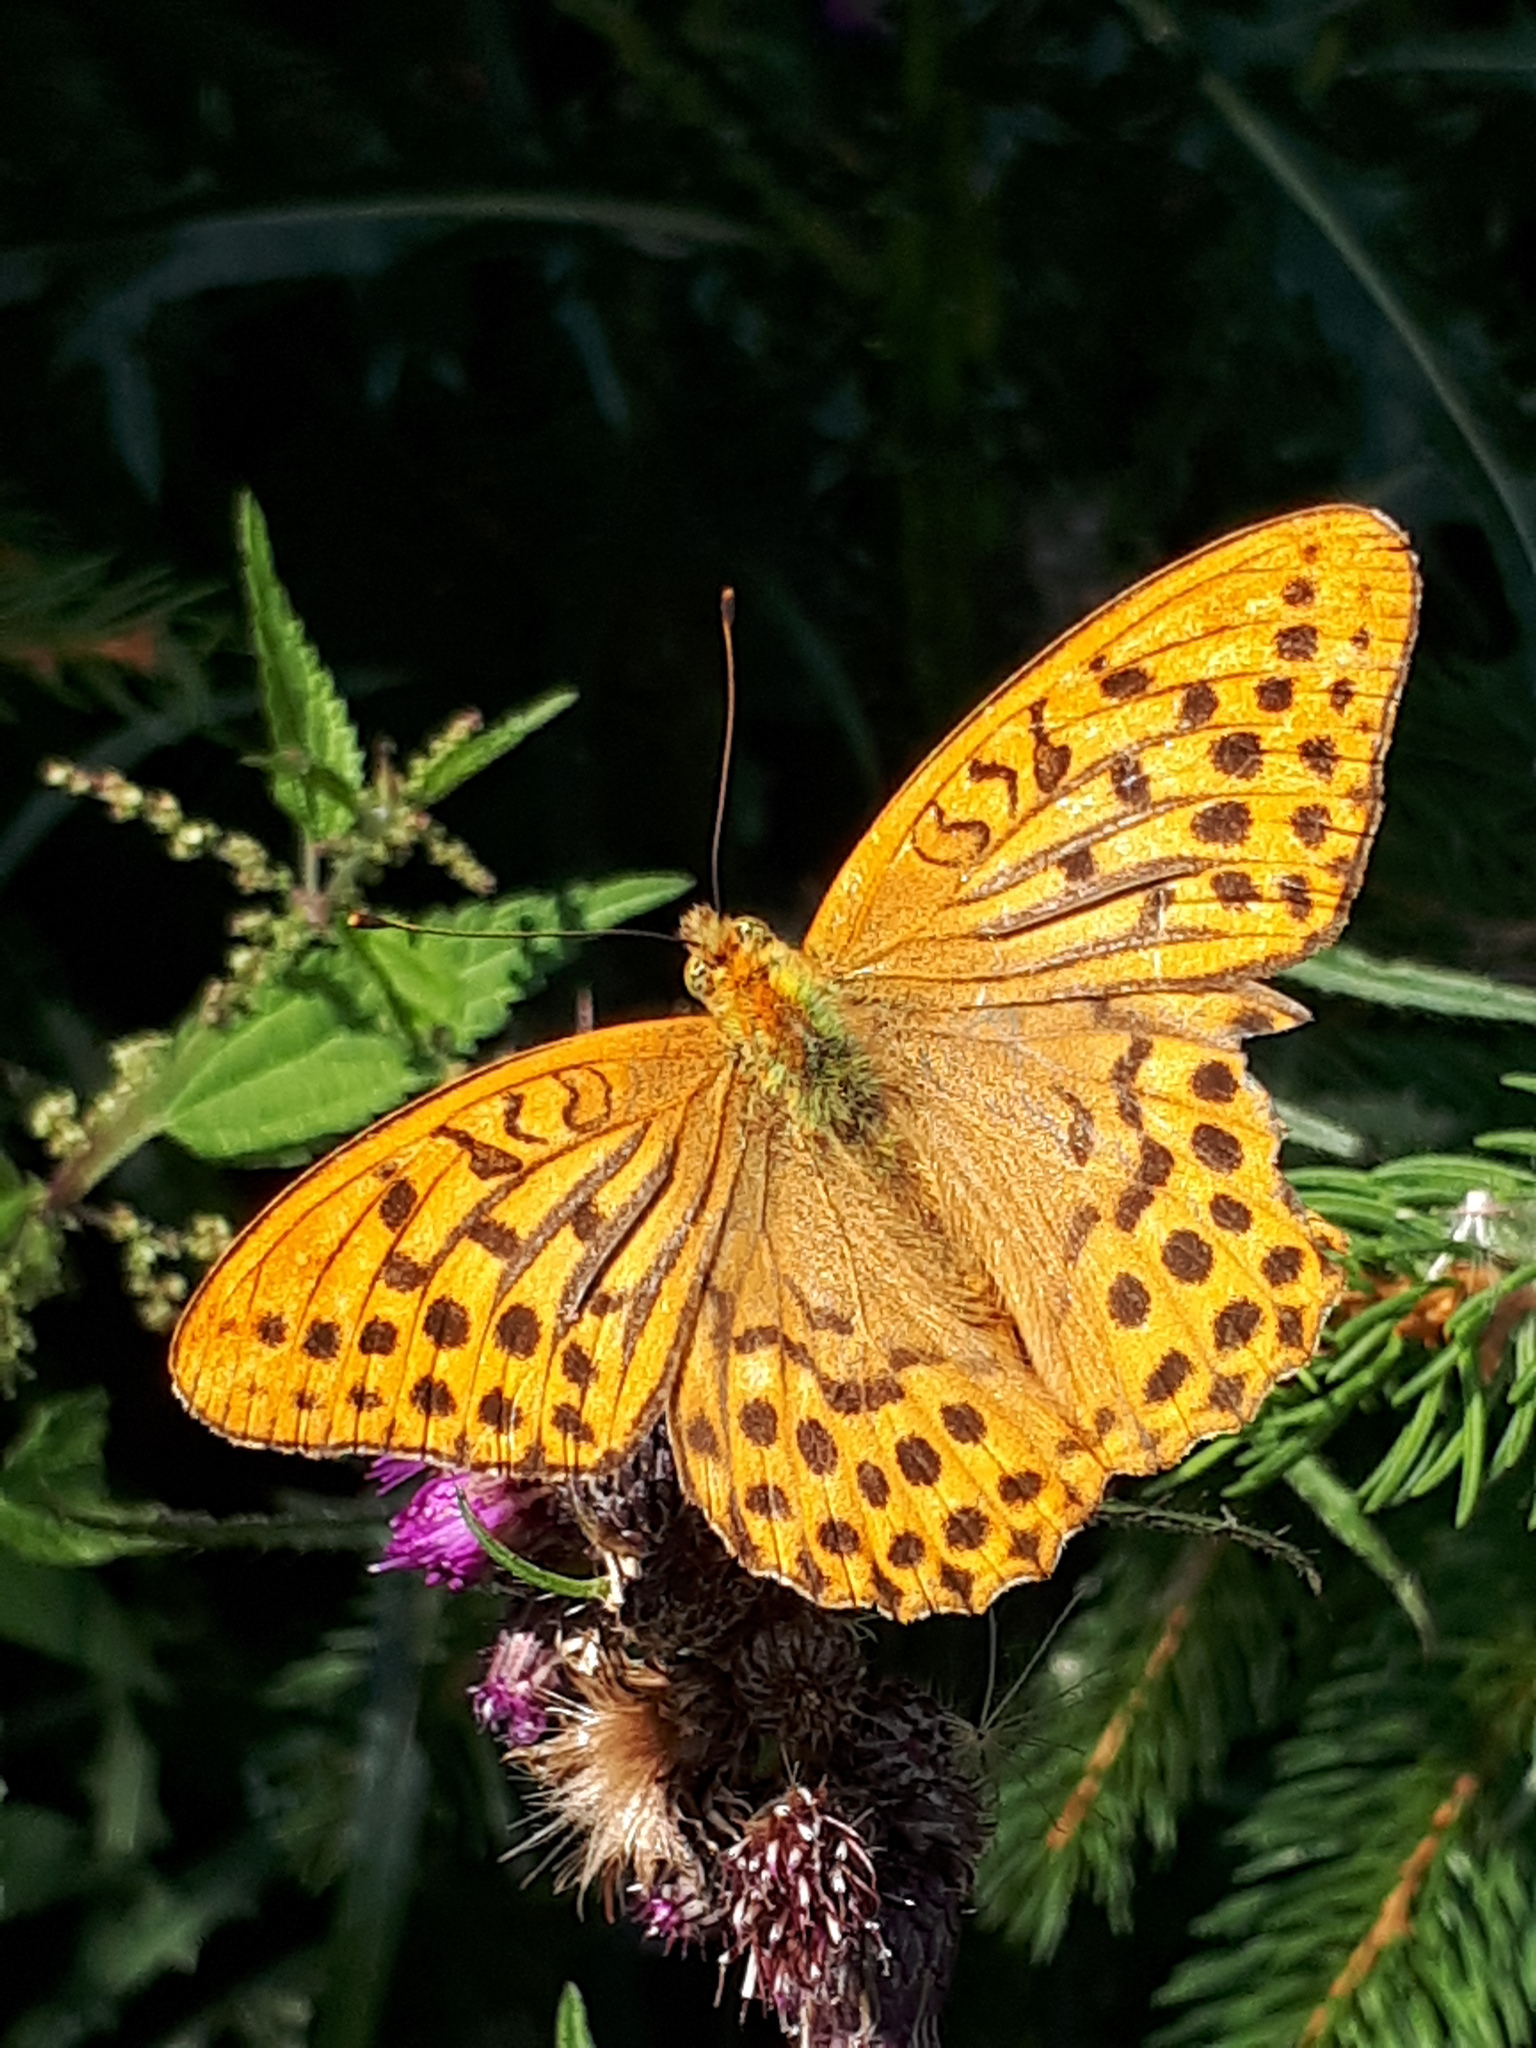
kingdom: Animalia
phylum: Arthropoda
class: Insecta
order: Lepidoptera
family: Nymphalidae
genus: Argynnis
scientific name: Argynnis paphia
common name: Silver-washed fritillary
